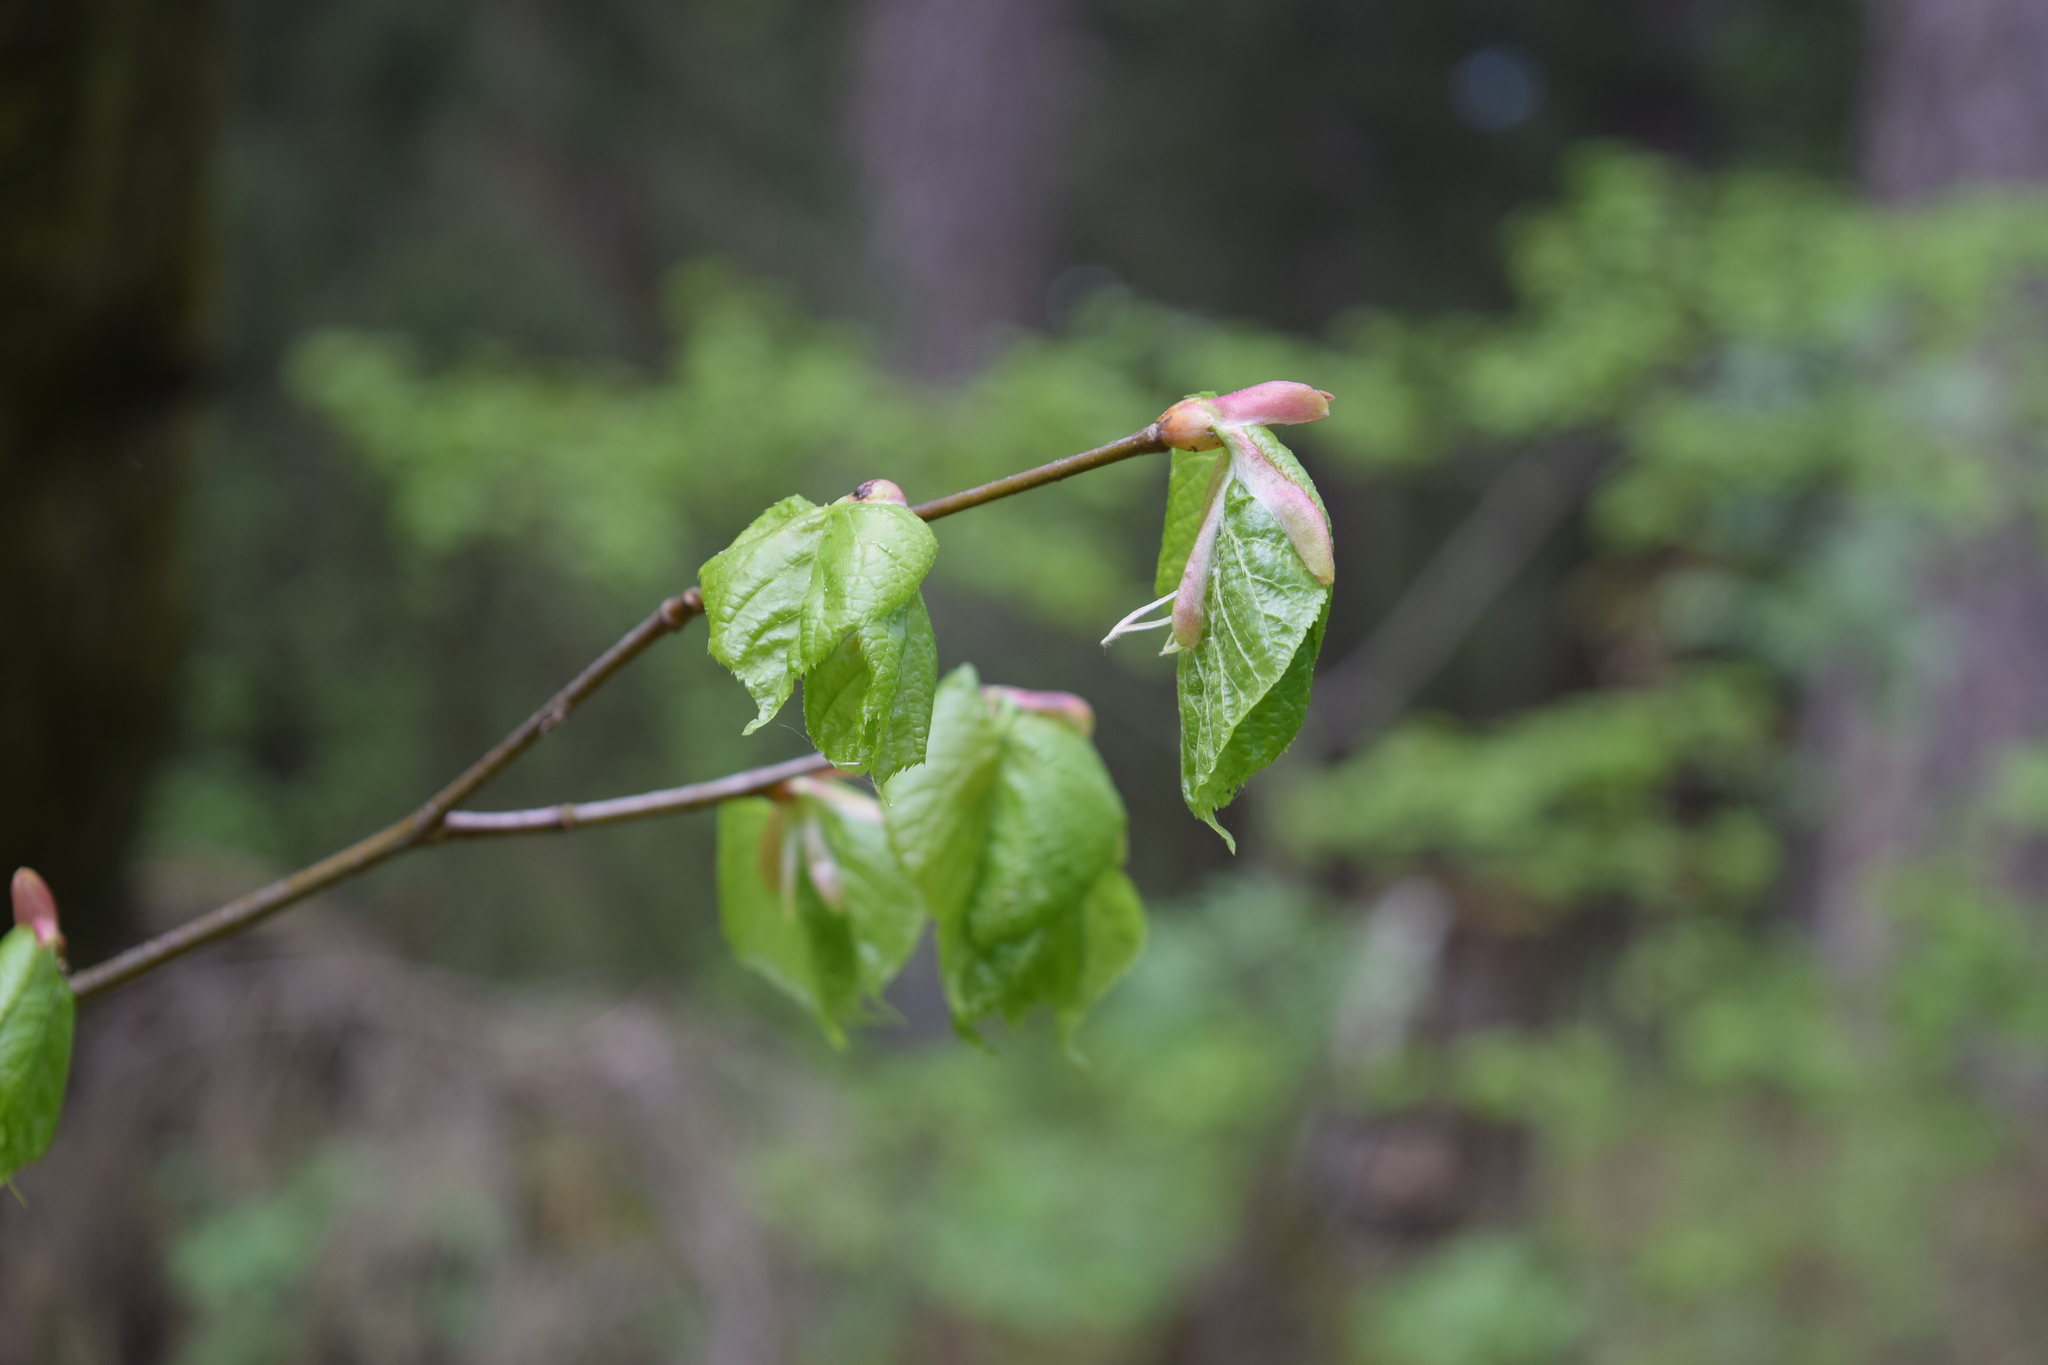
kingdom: Plantae
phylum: Tracheophyta
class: Magnoliopsida
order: Malvales
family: Malvaceae
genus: Tilia
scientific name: Tilia cordata
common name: Small-leaved lime
